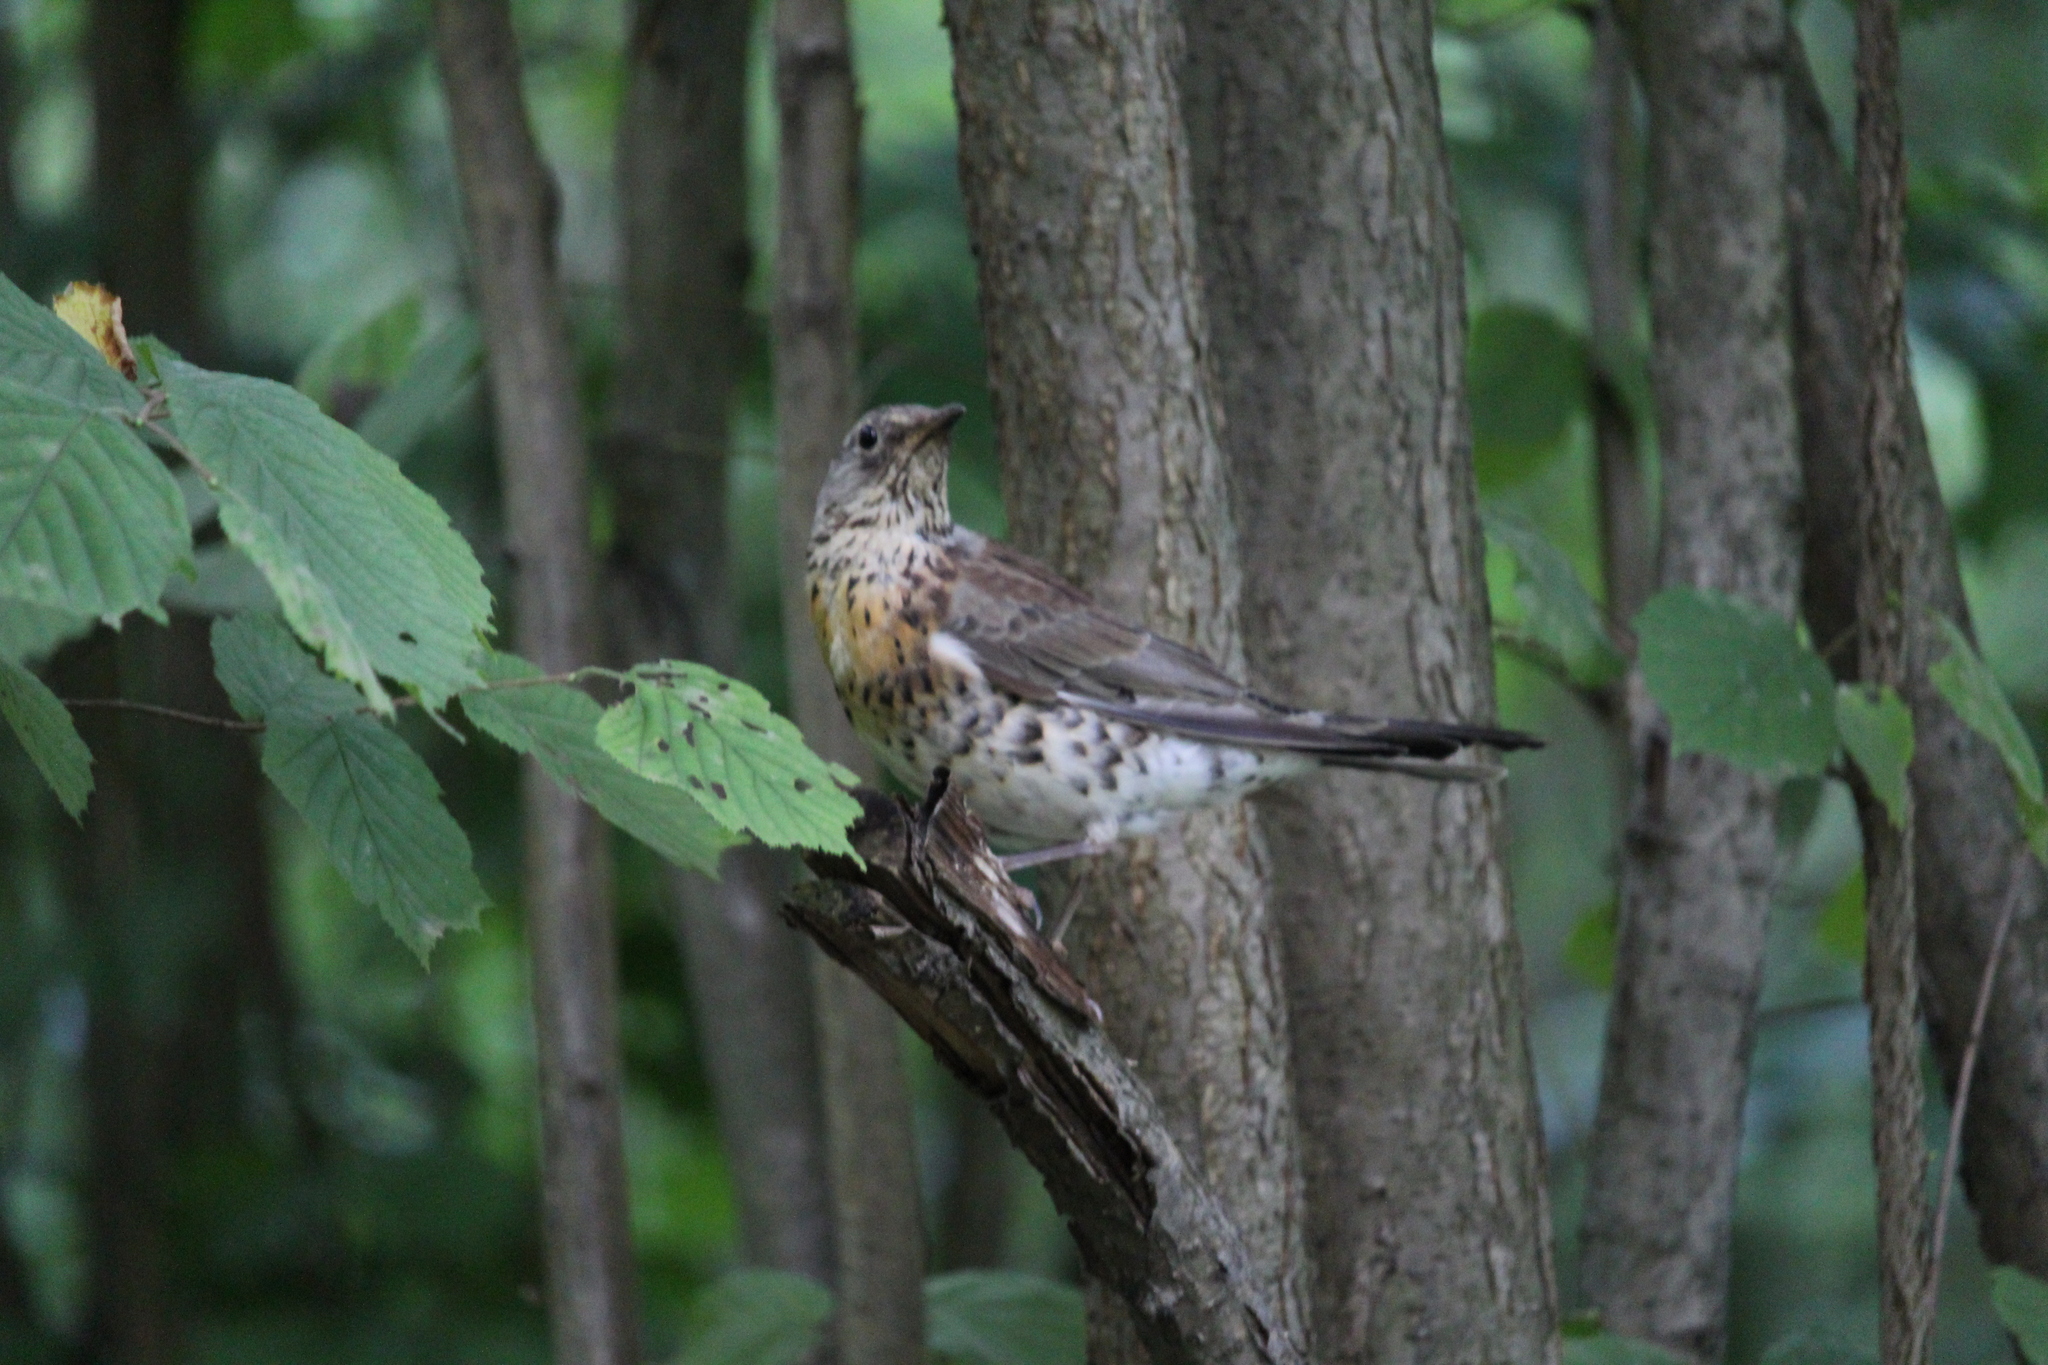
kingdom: Animalia
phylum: Chordata
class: Aves
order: Passeriformes
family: Turdidae
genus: Turdus
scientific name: Turdus pilaris
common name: Fieldfare
